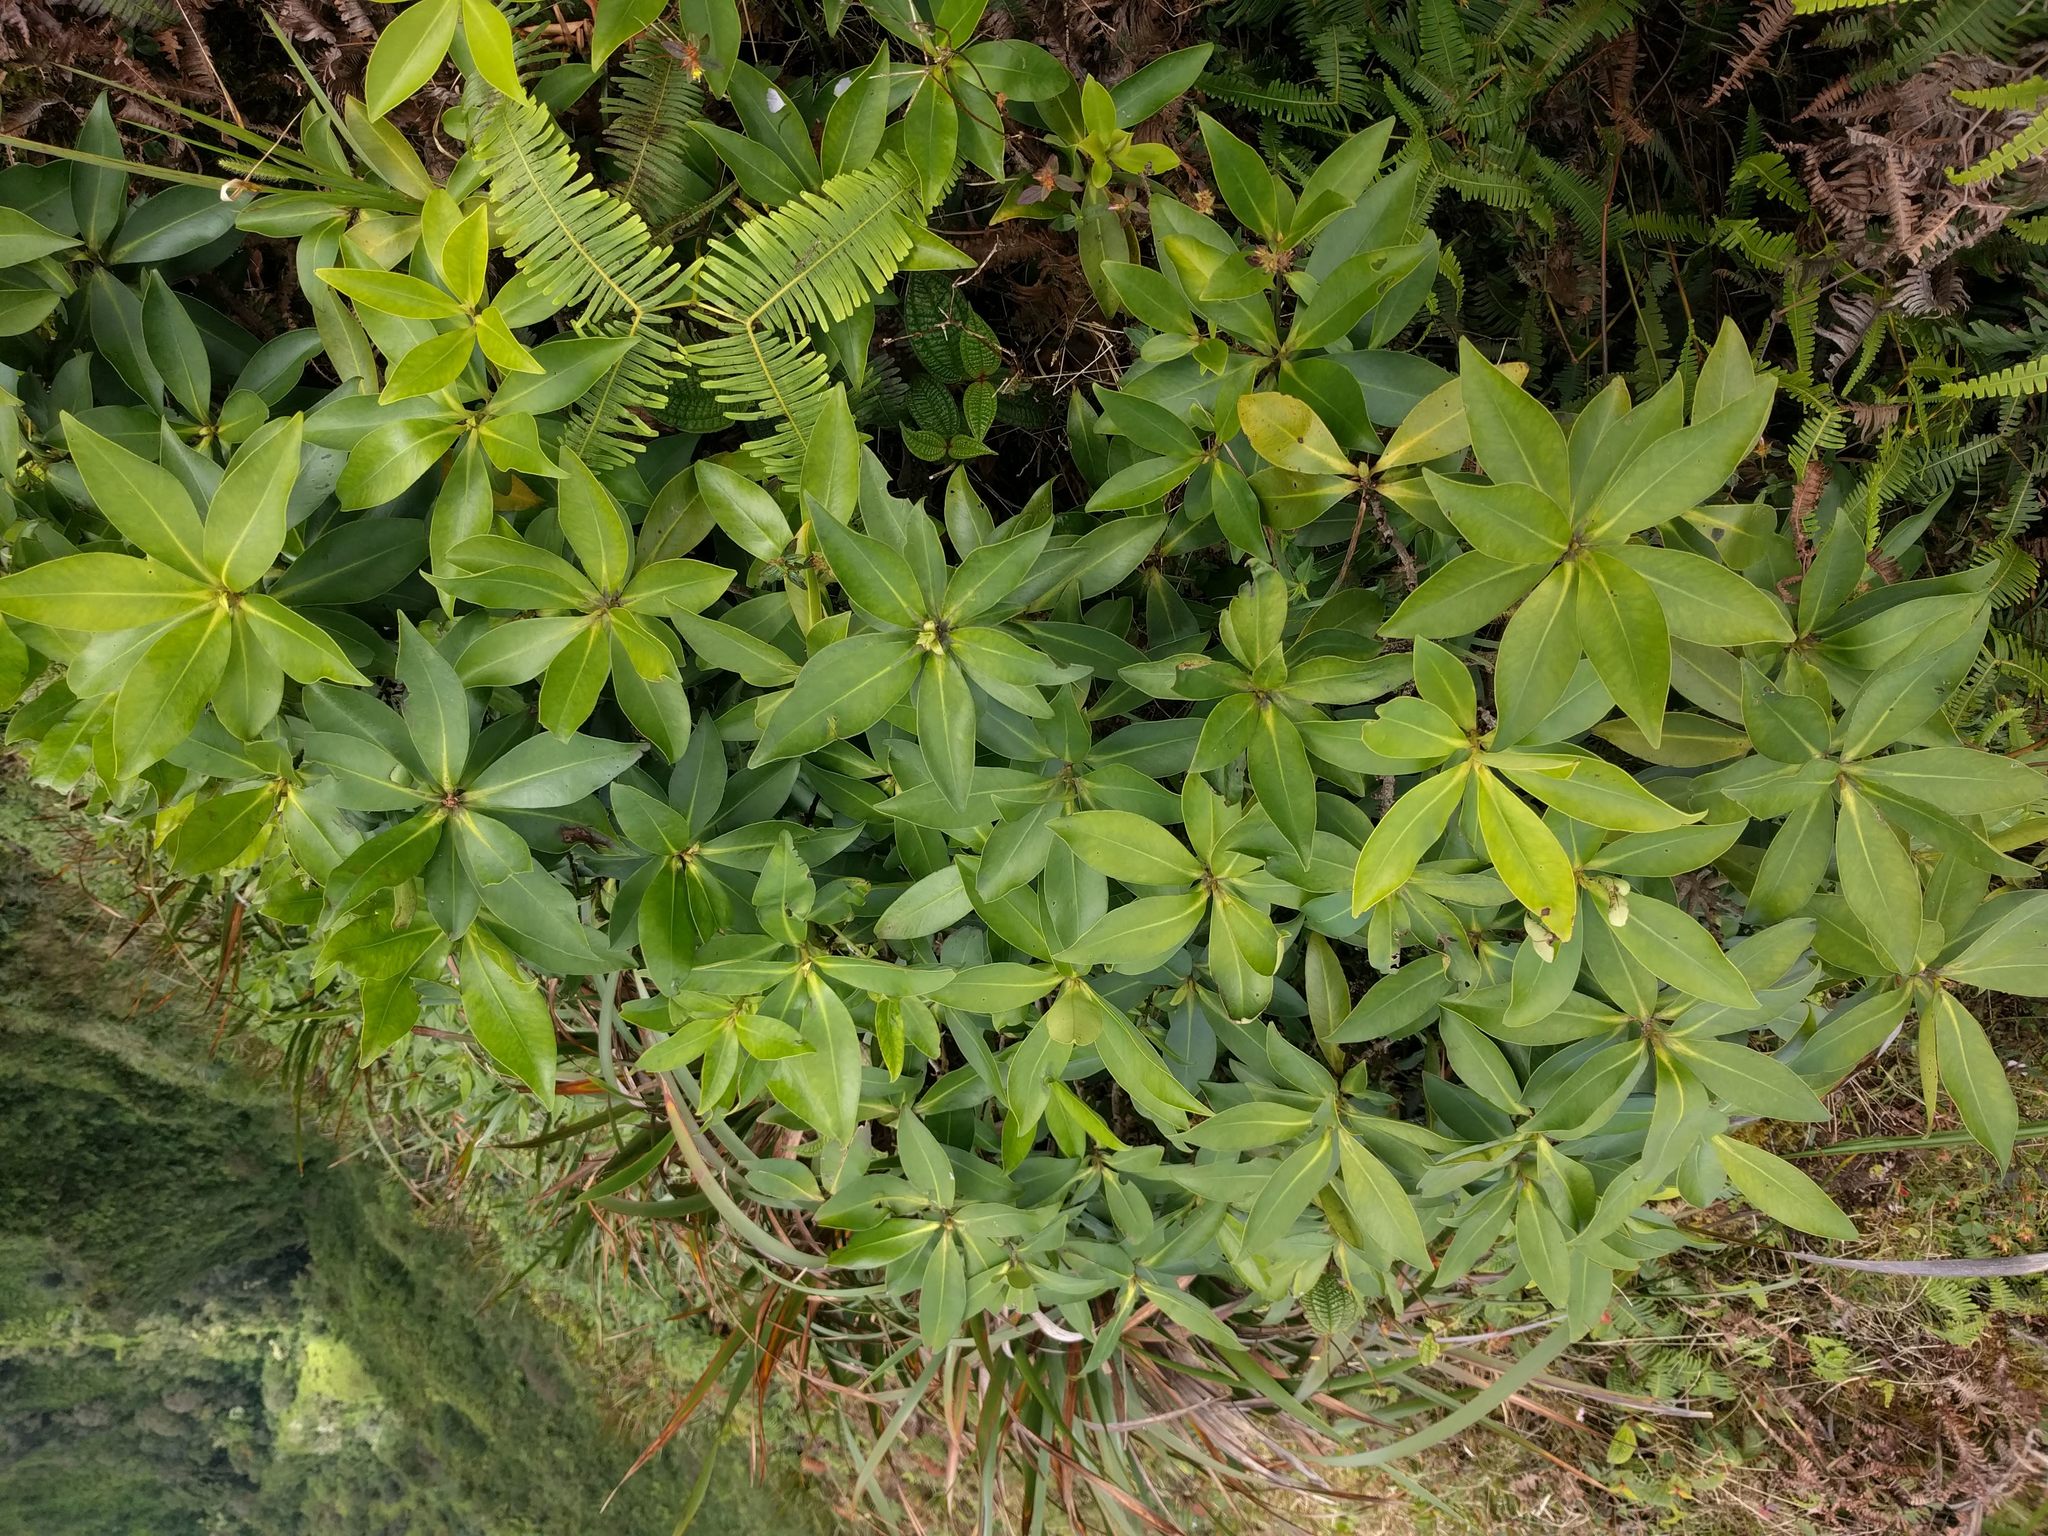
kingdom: Plantae
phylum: Tracheophyta
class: Magnoliopsida
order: Ericales
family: Primulaceae
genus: Myrsine
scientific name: Myrsine degeneri
